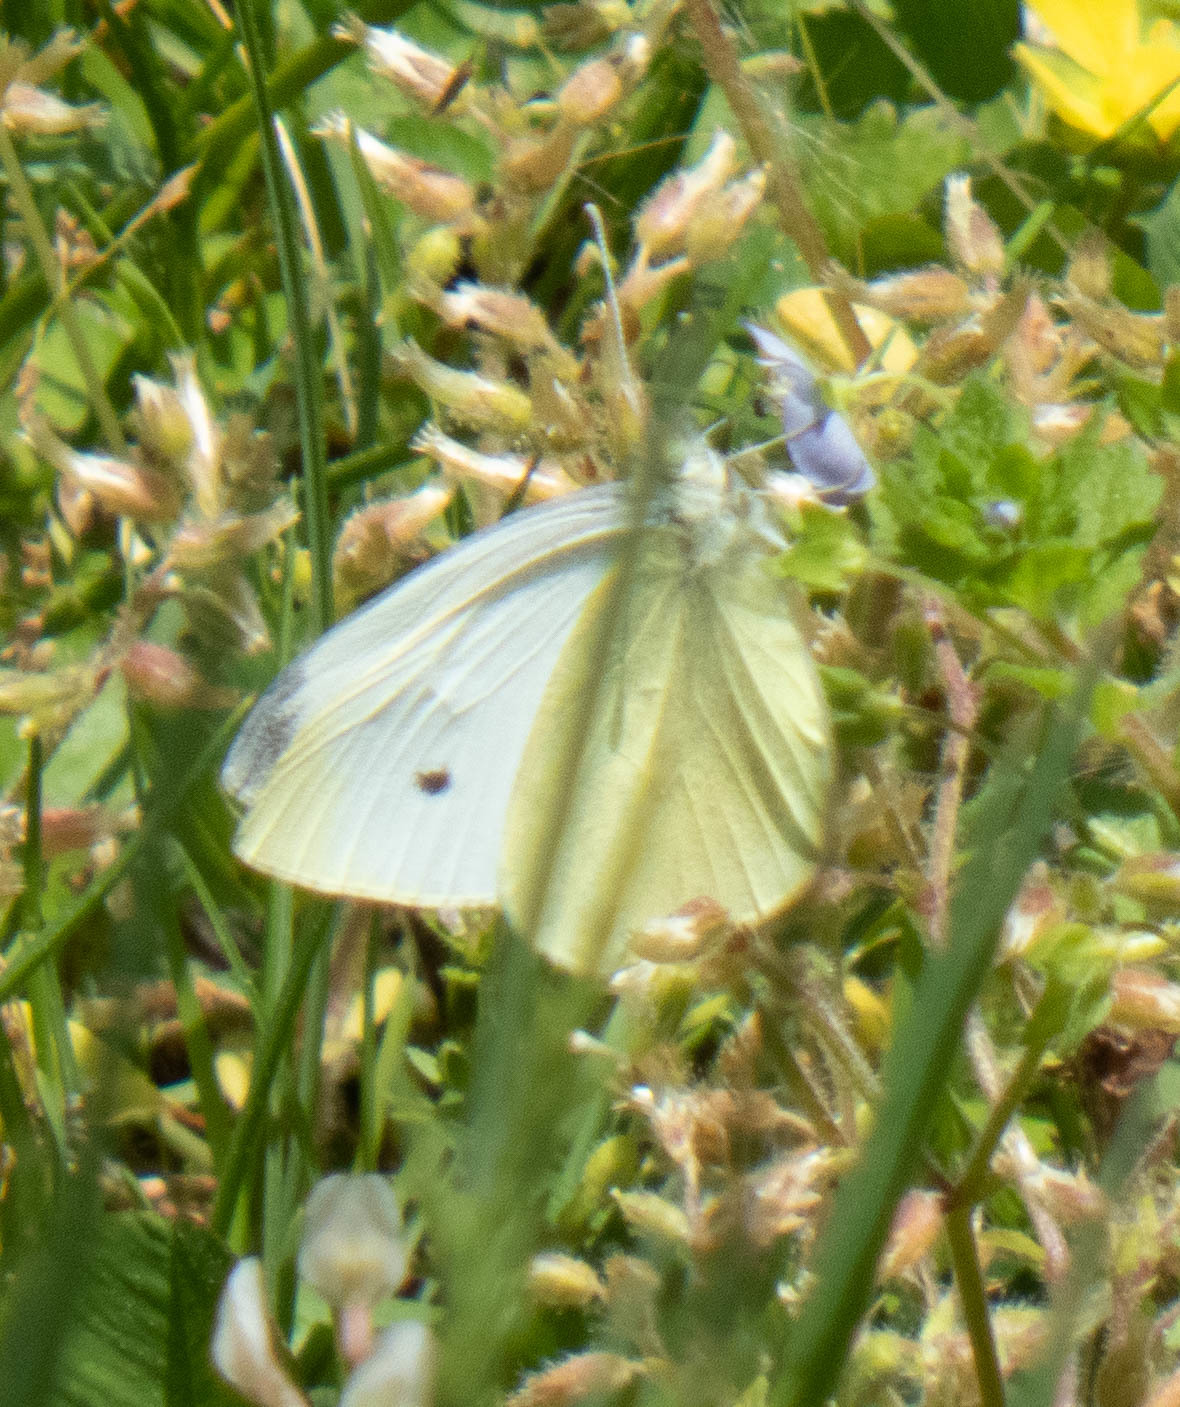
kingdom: Animalia
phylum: Arthropoda
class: Insecta
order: Lepidoptera
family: Pieridae
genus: Pieris
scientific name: Pieris rapae
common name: Small white
